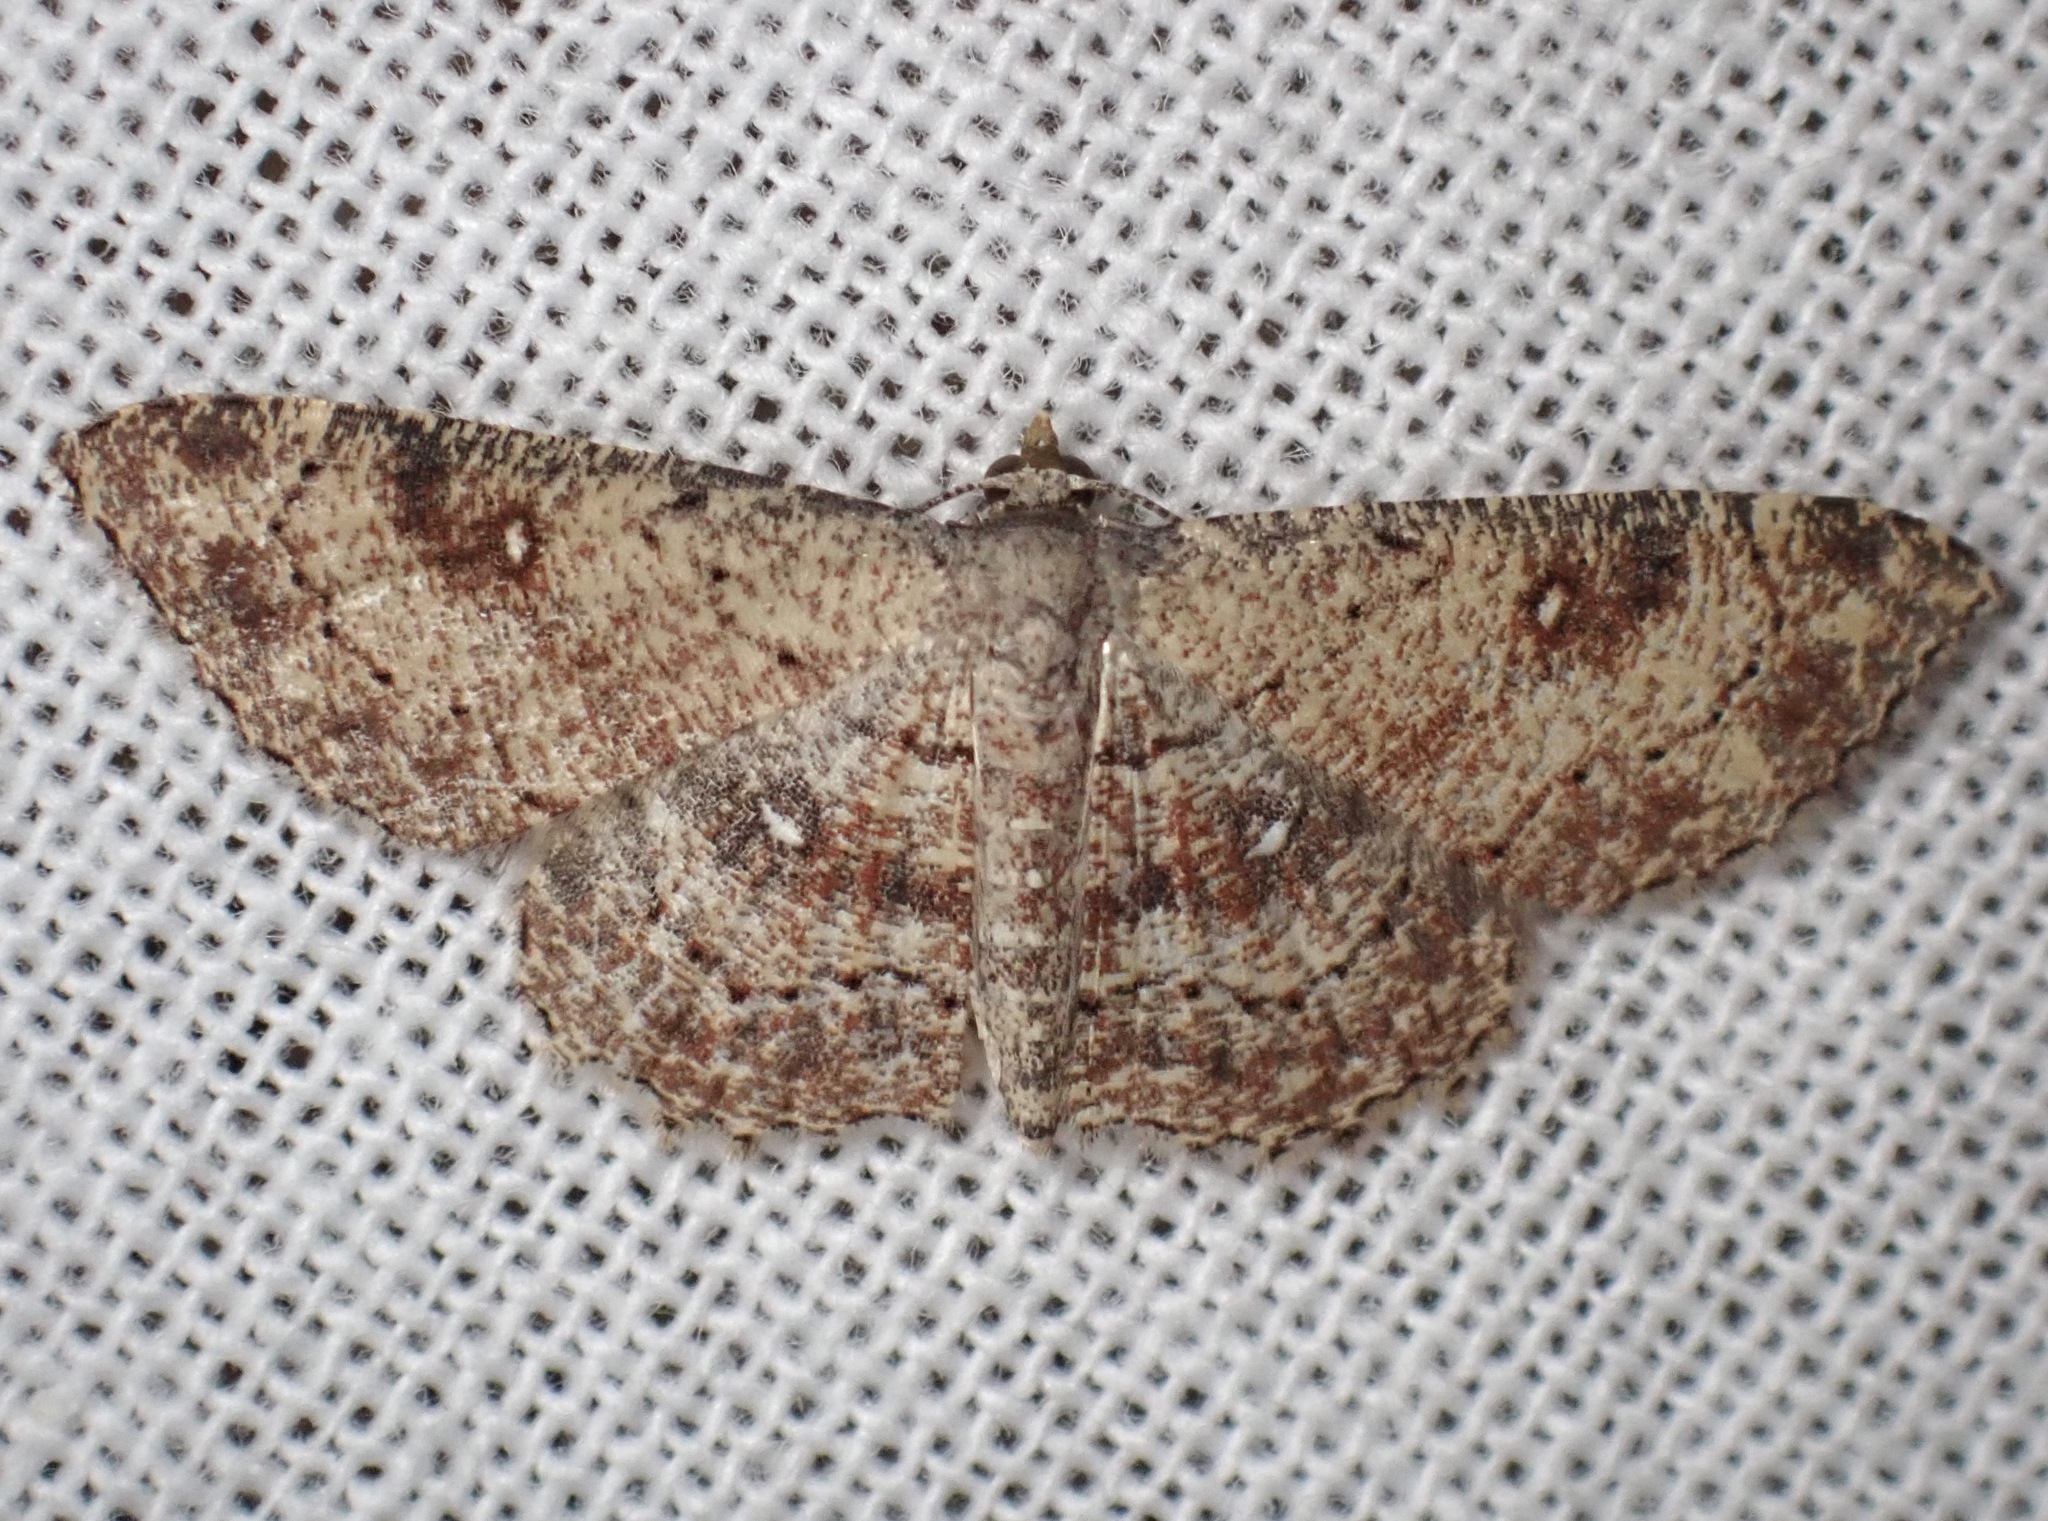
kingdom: Animalia
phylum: Arthropoda
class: Insecta
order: Lepidoptera
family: Geometridae
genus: Cyclophora
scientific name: Cyclophora nanaria
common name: Cankerworm
